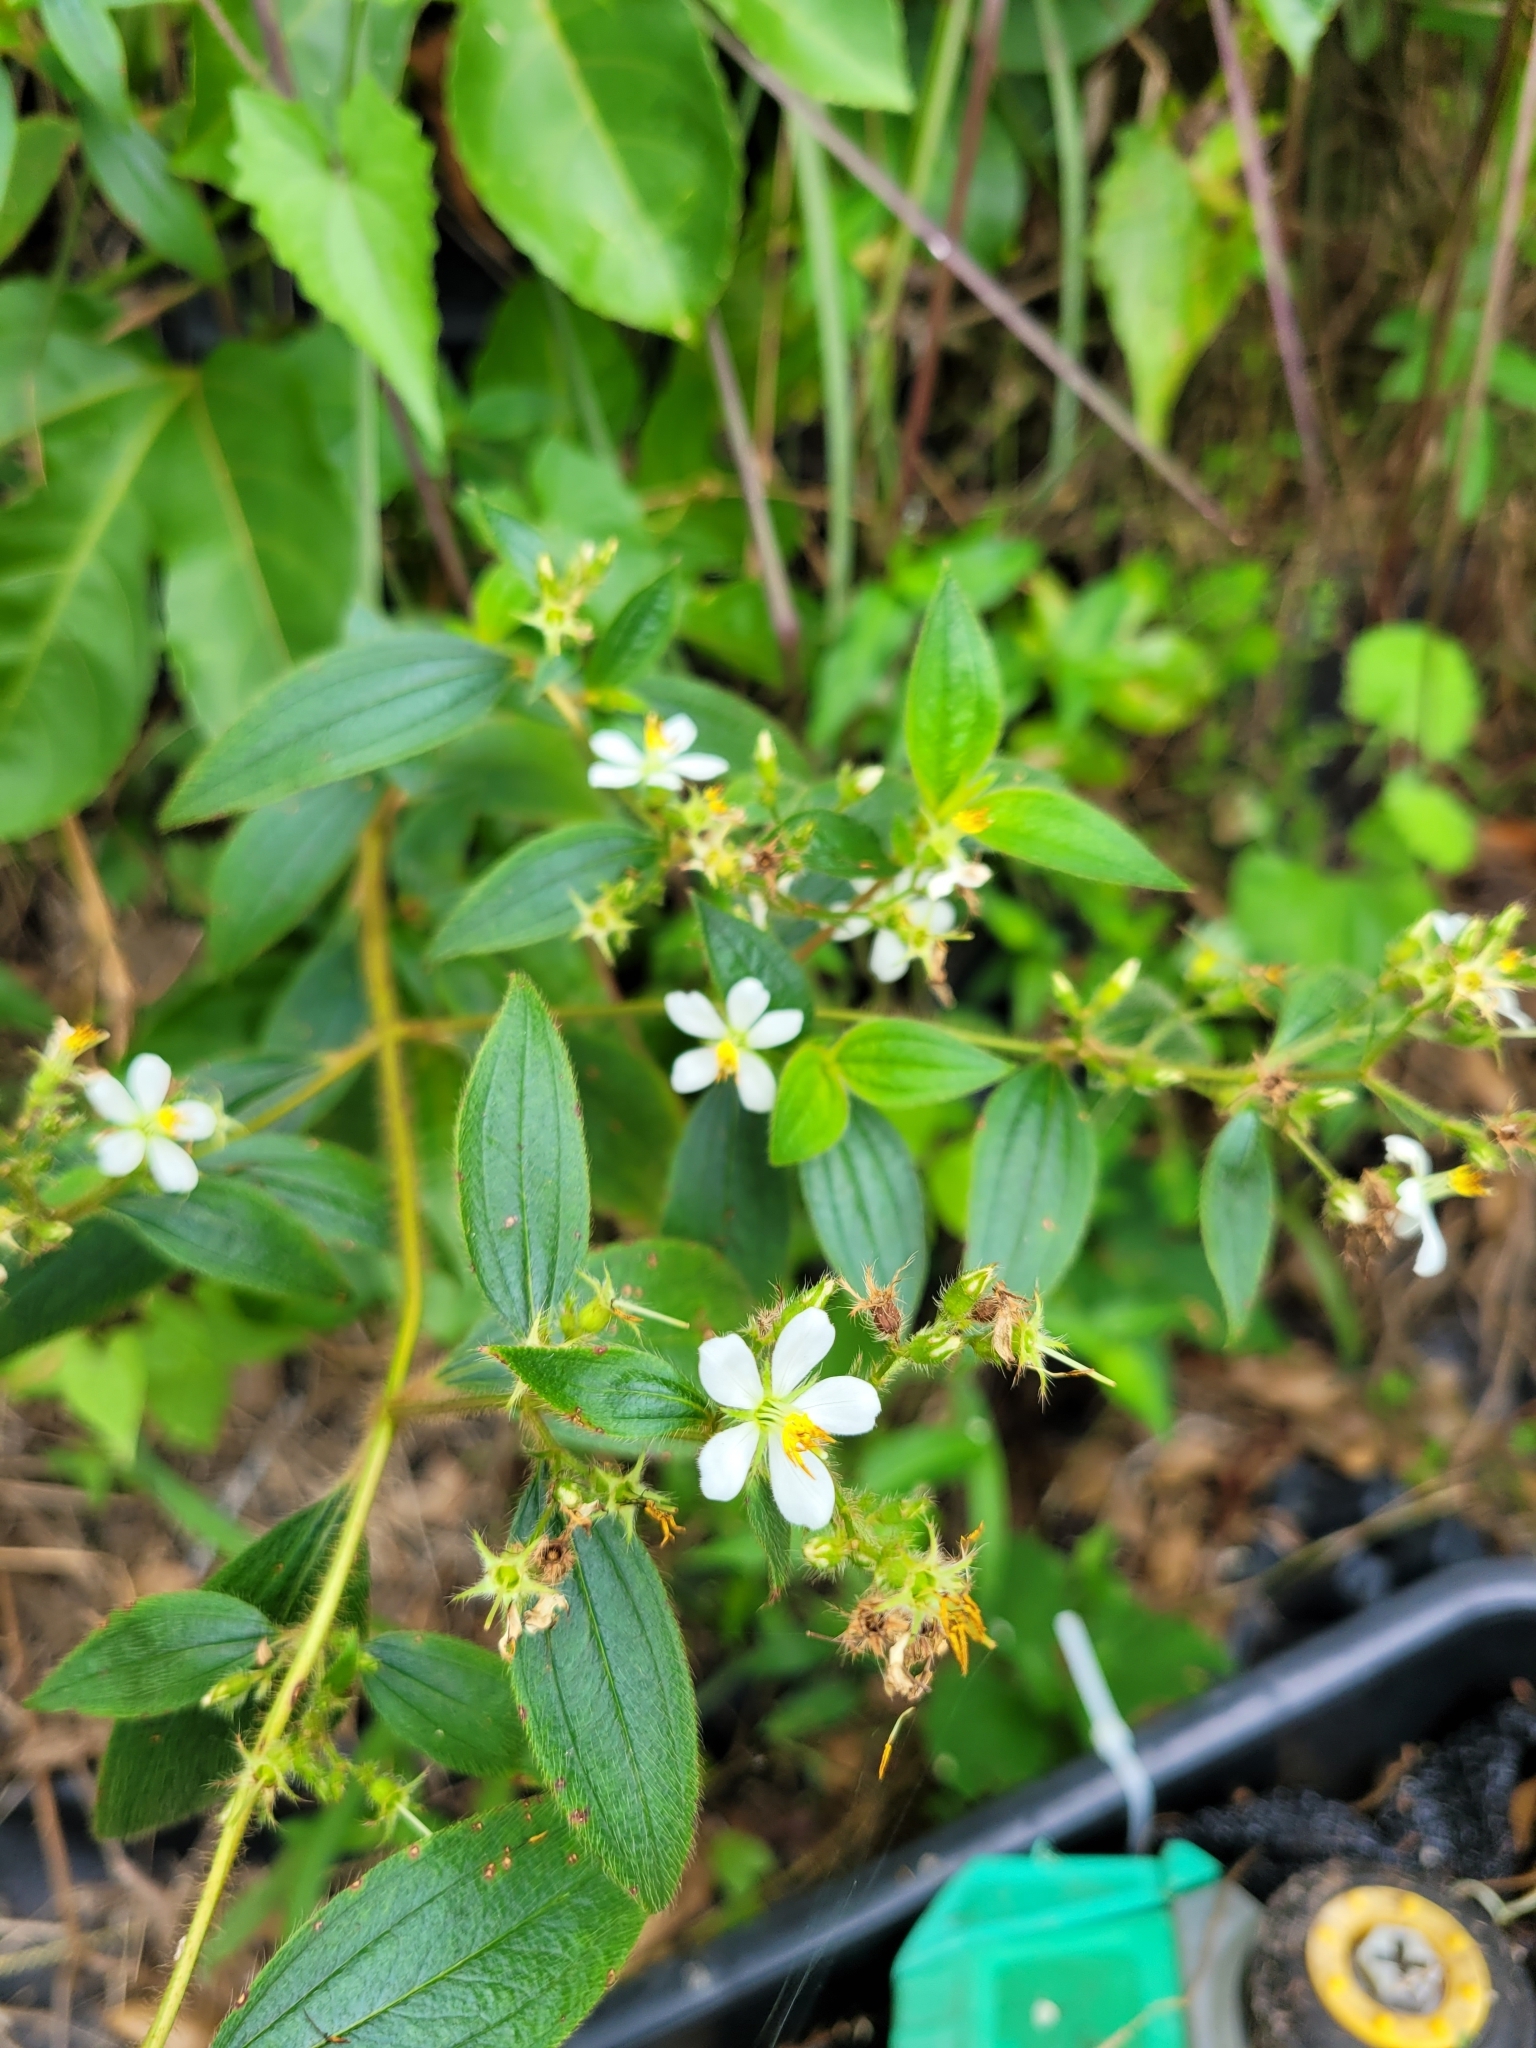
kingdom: Plantae
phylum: Tracheophyta
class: Magnoliopsida
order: Myrtales
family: Melastomataceae
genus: Chaetogastra
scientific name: Chaetogastra longifolia
